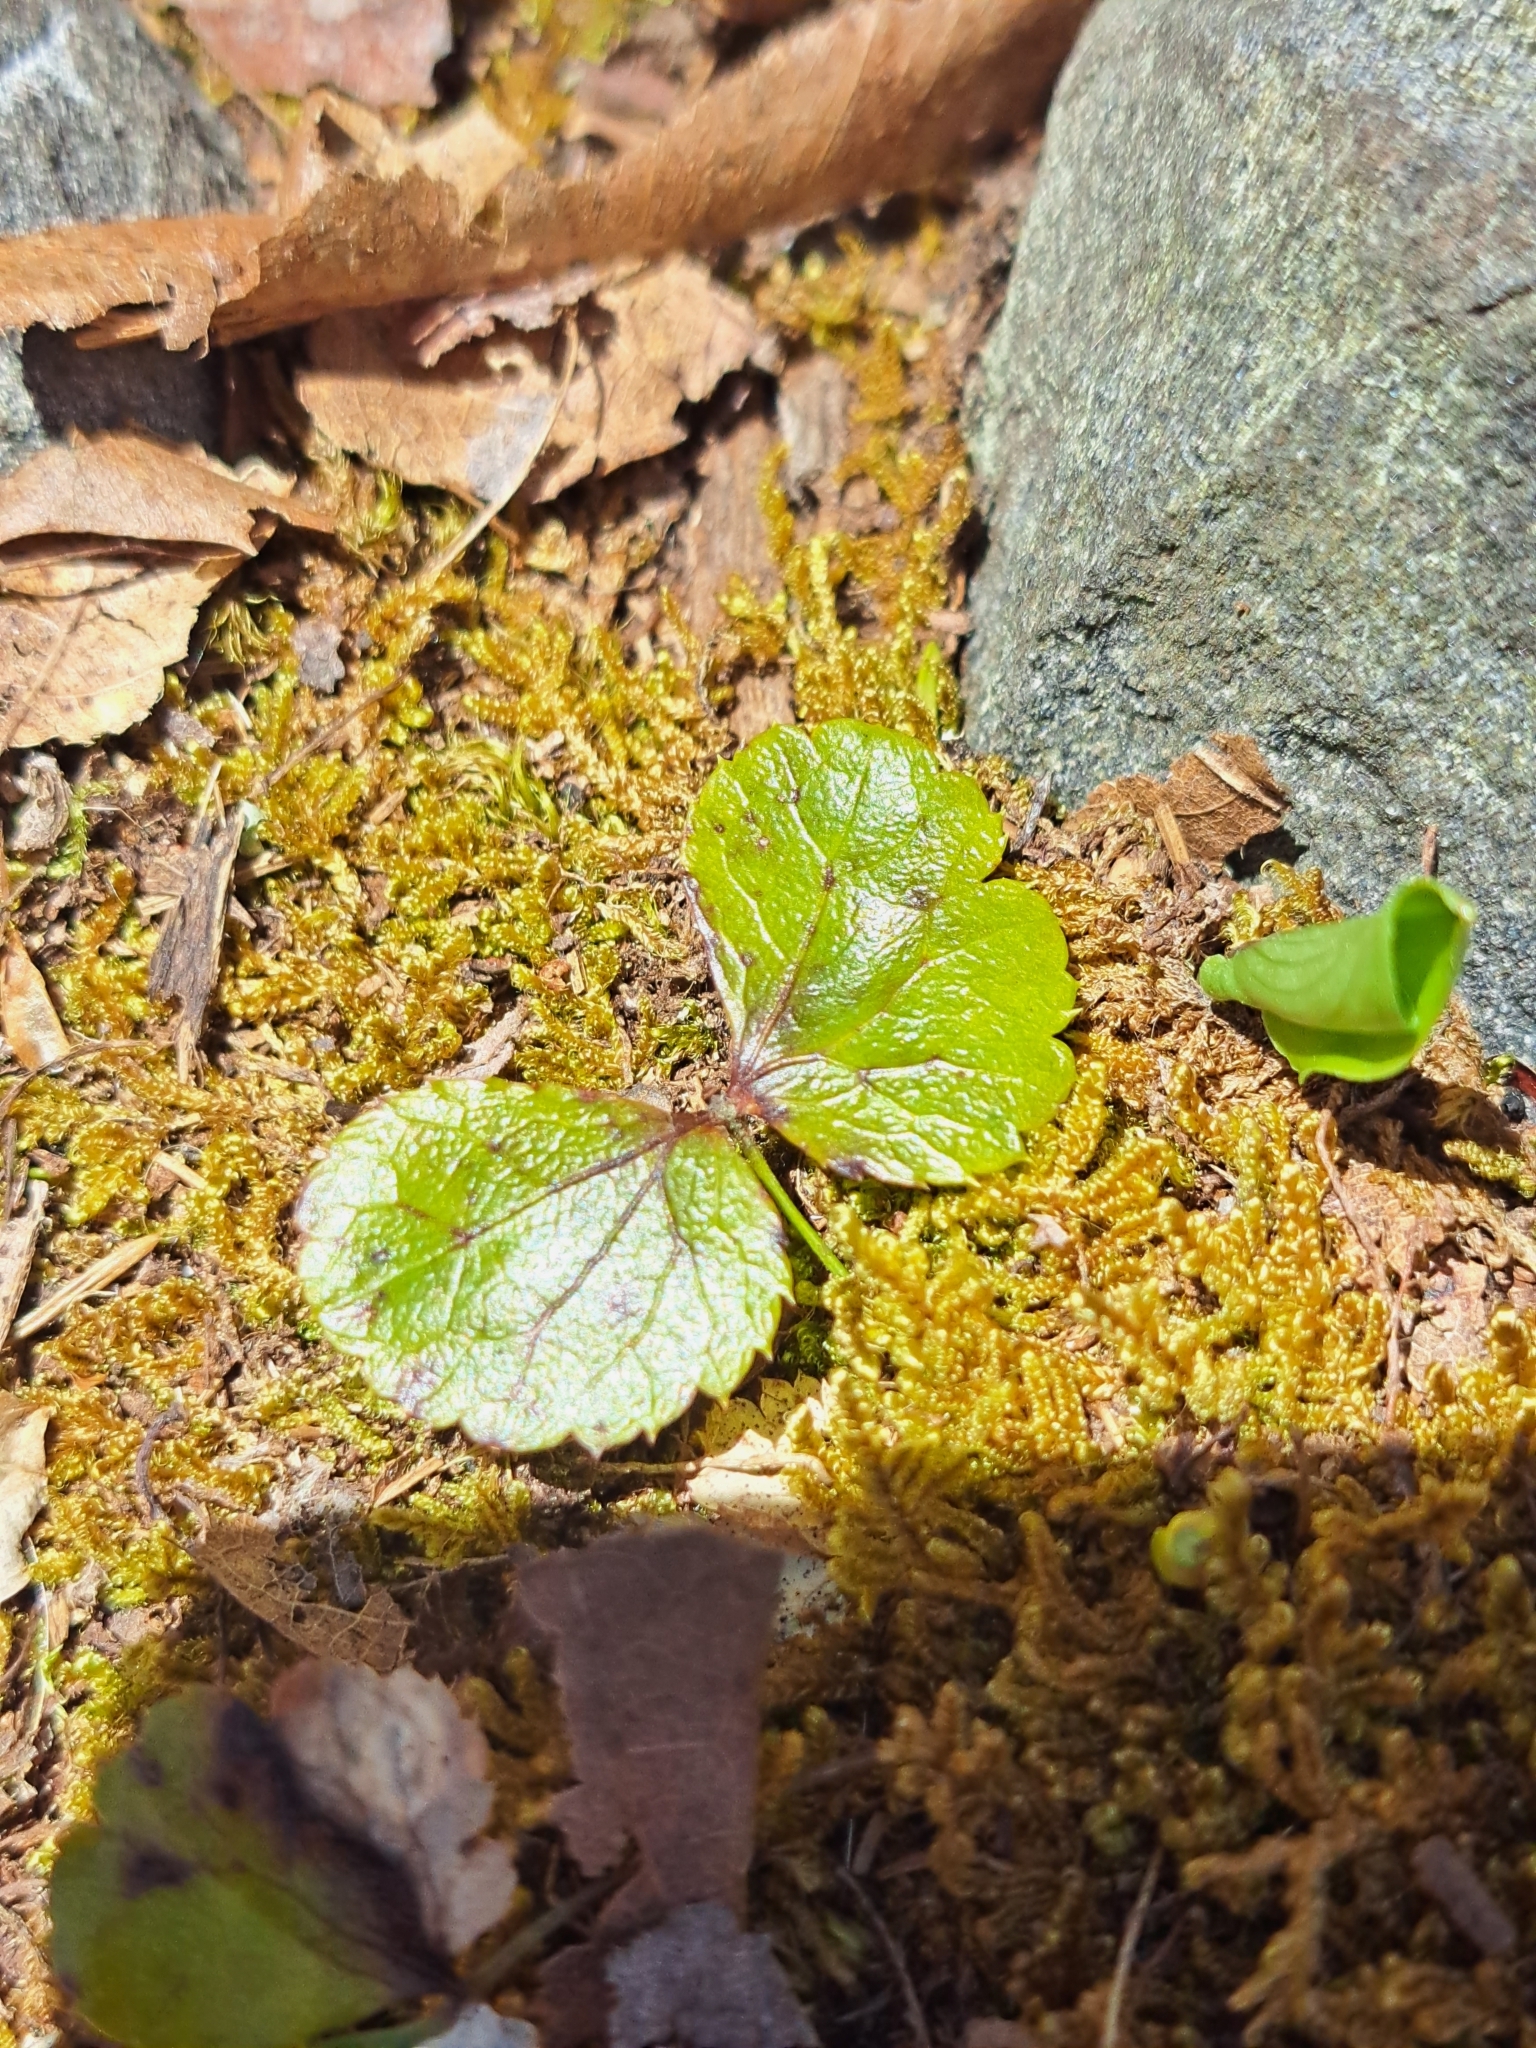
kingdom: Plantae
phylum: Tracheophyta
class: Magnoliopsida
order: Ranunculales
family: Ranunculaceae
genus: Coptis
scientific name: Coptis trifolia
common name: Canker-root
